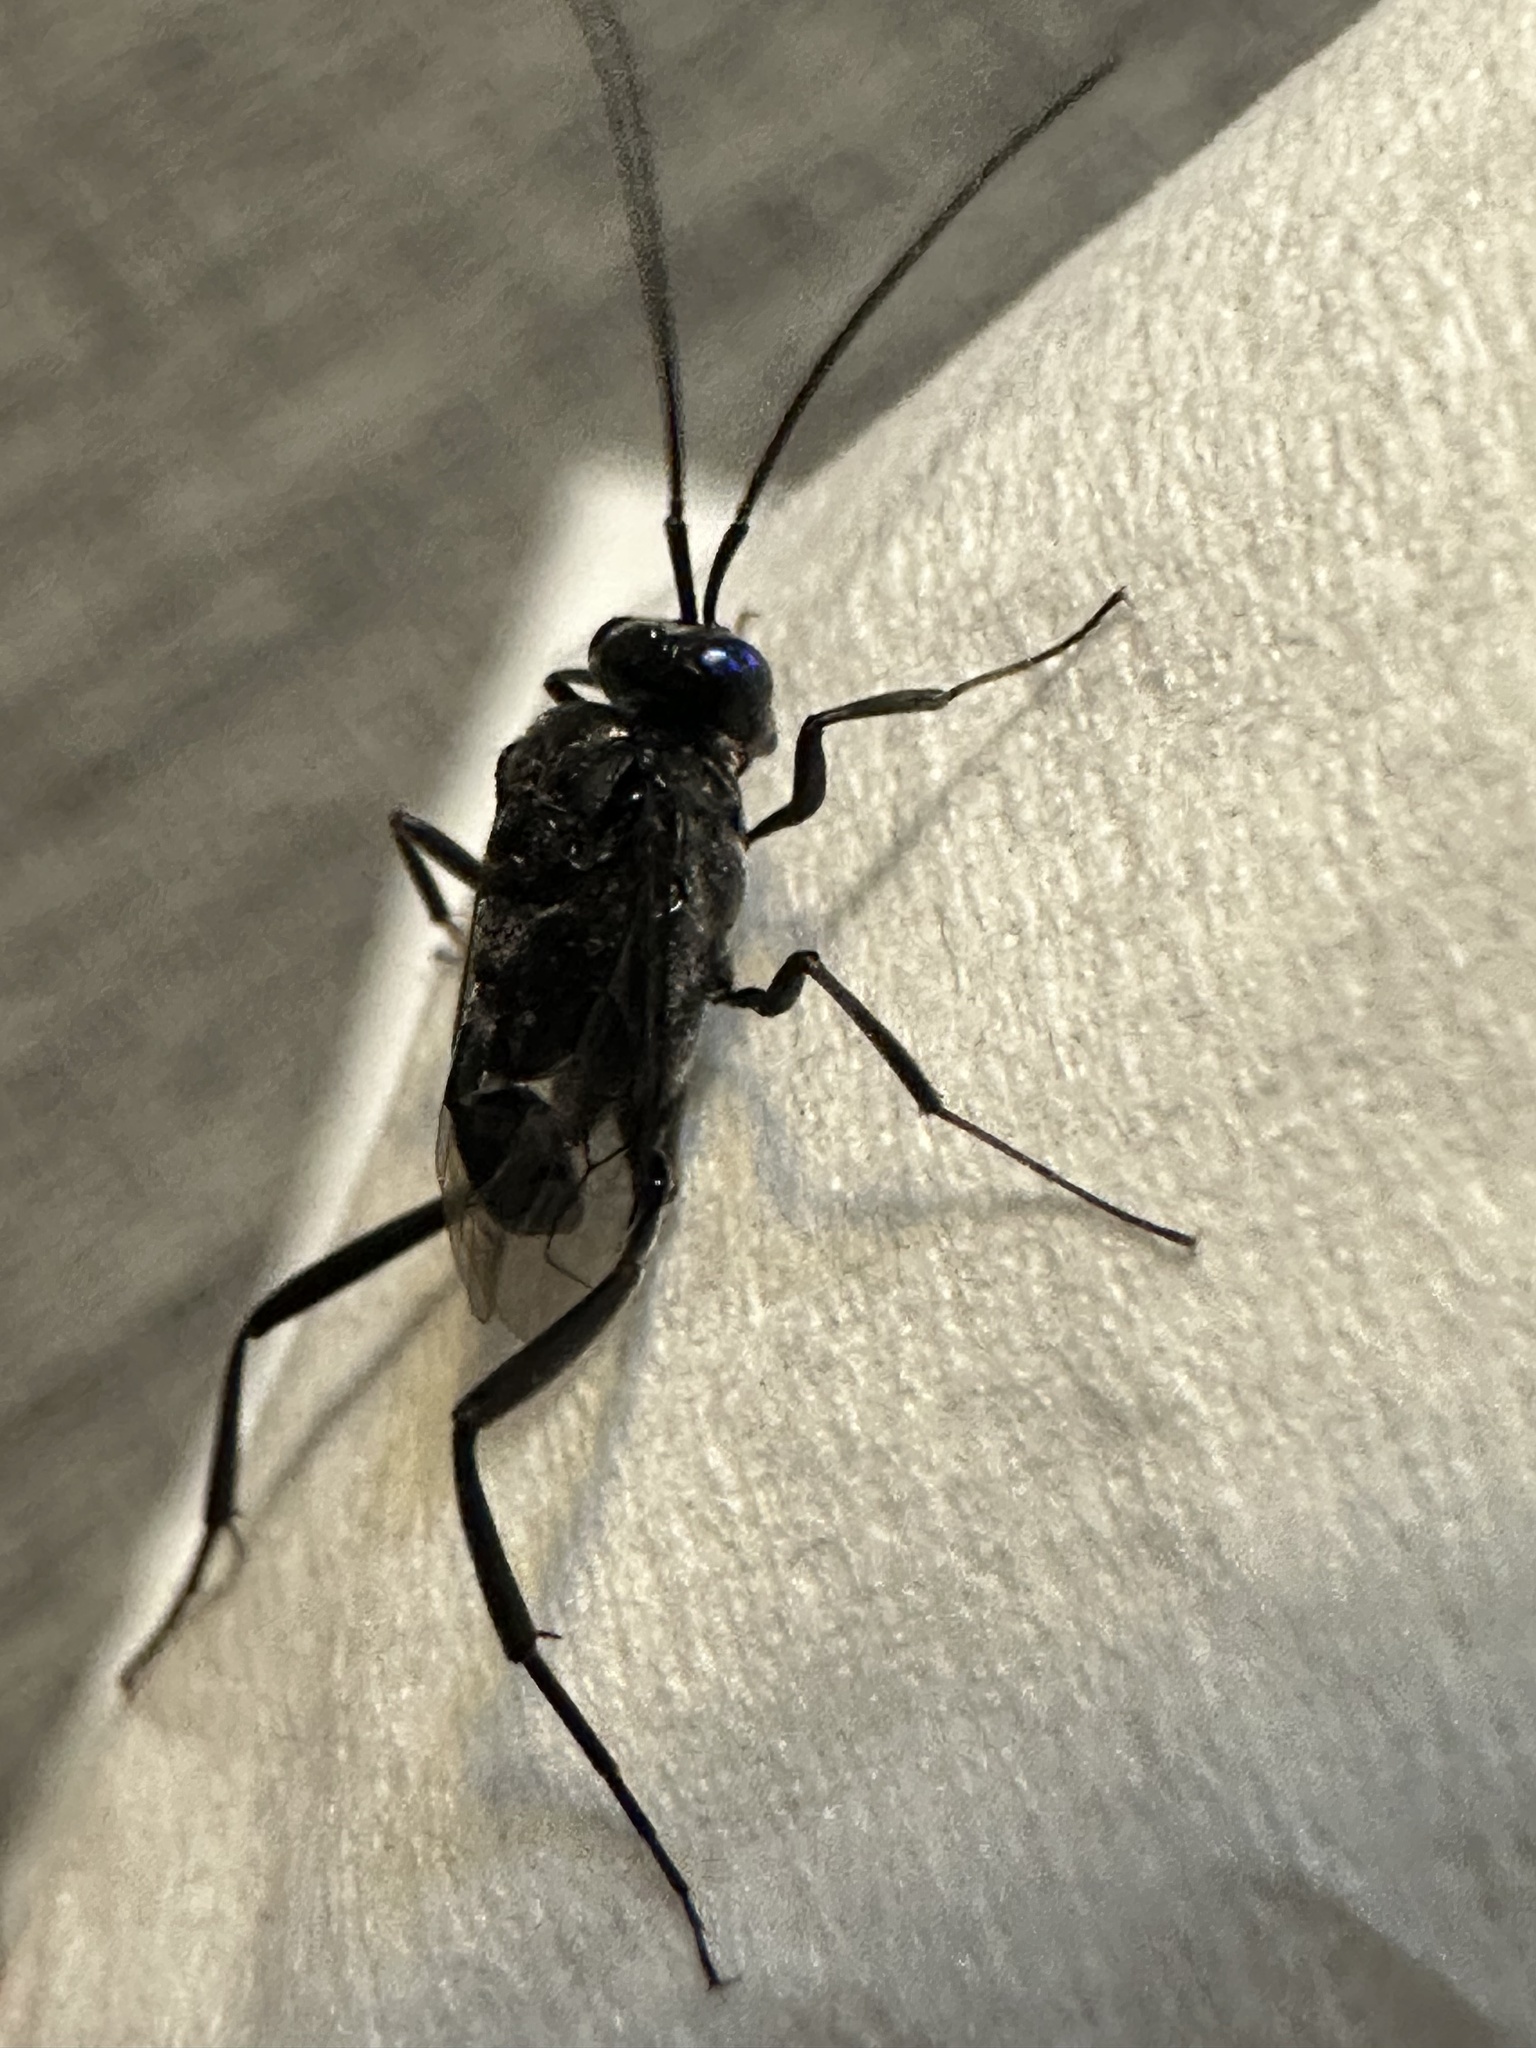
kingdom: Animalia
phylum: Arthropoda
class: Insecta
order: Hymenoptera
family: Evaniidae
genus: Evania
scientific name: Evania appendigaster
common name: Ensign wasp
